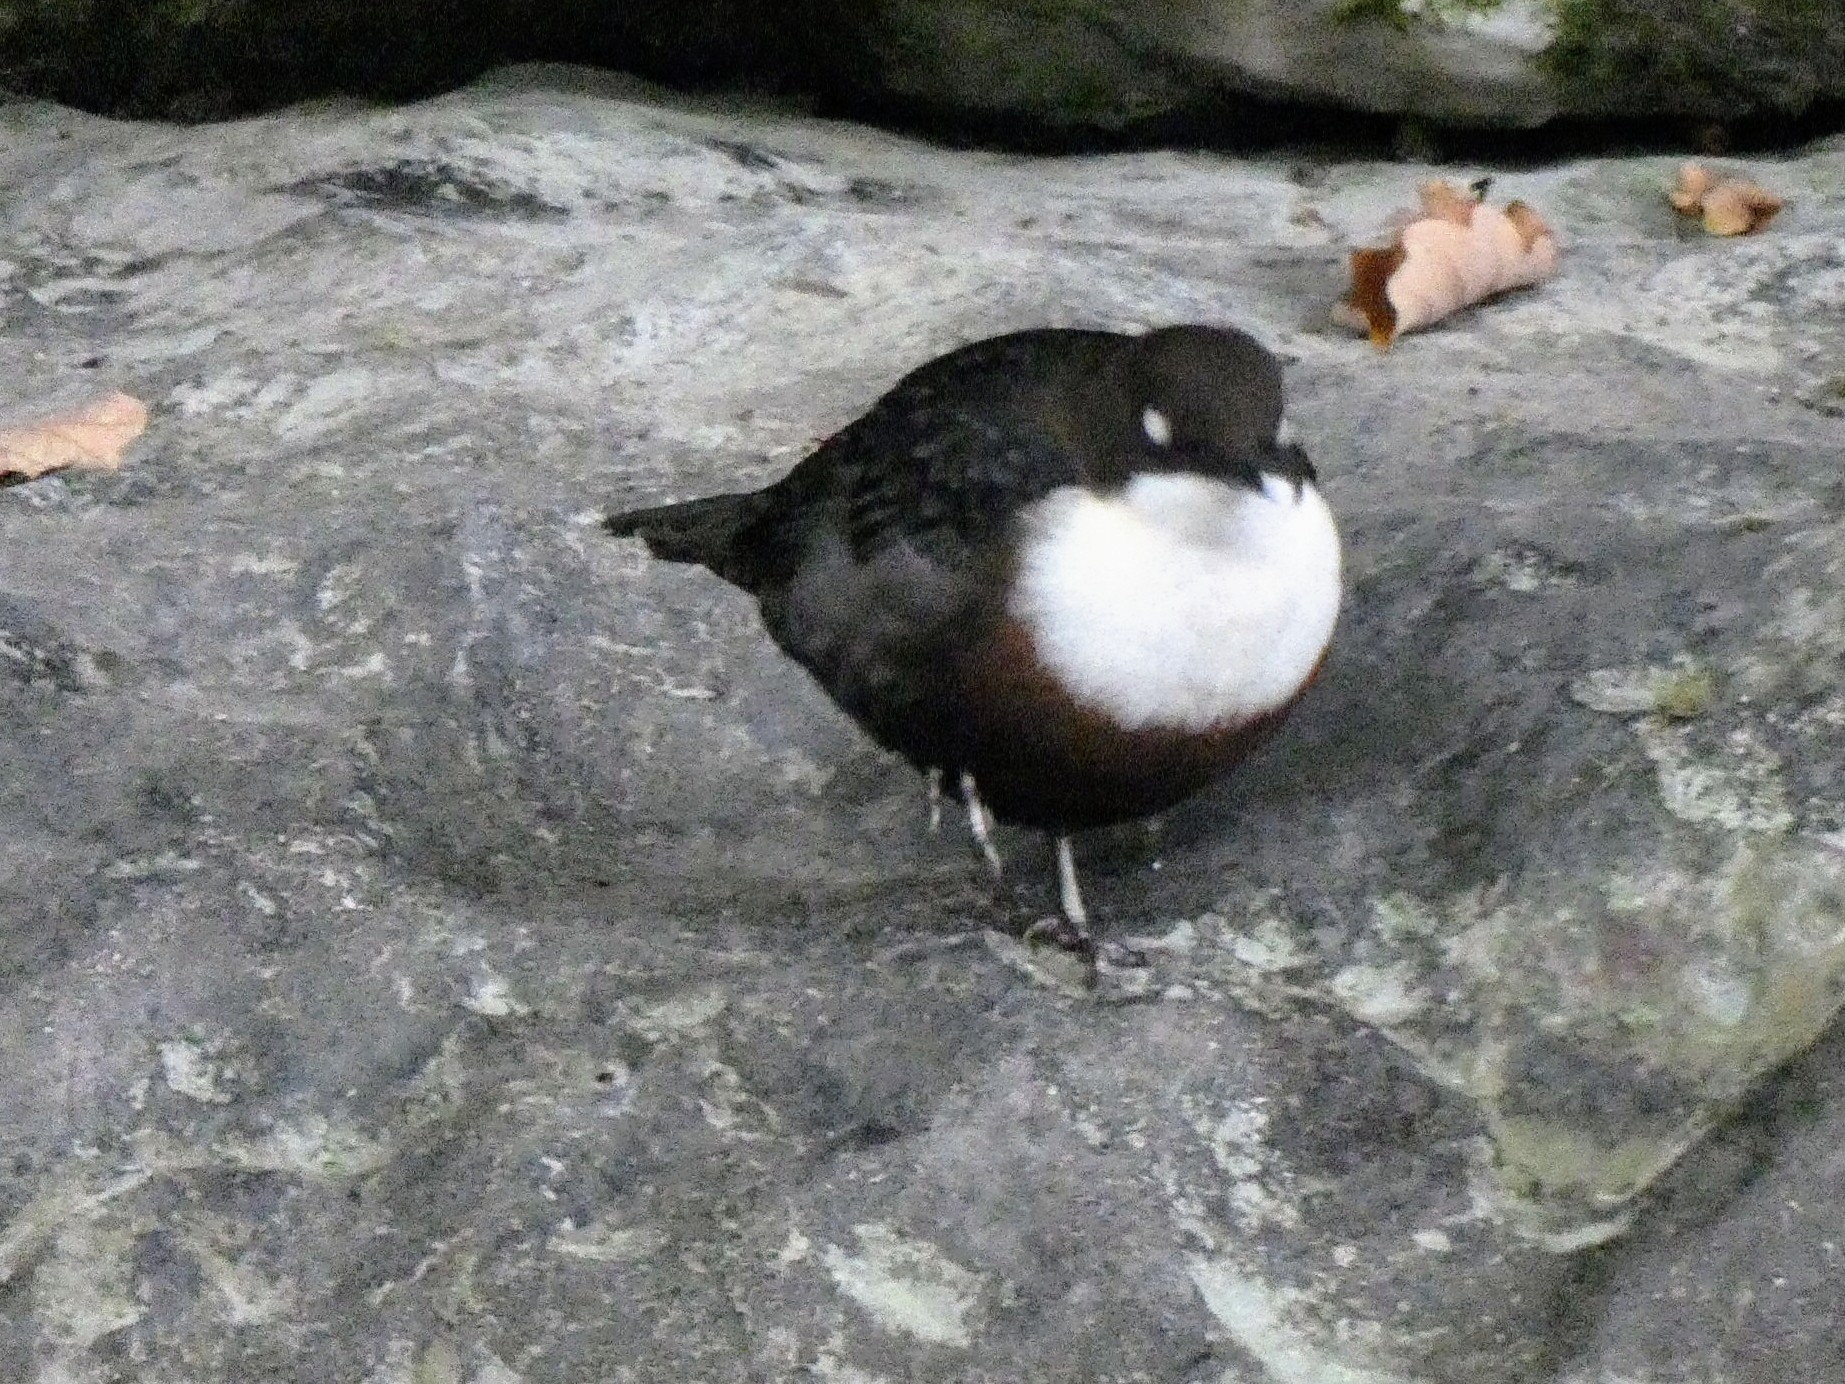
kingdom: Animalia
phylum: Chordata
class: Aves
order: Passeriformes
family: Cinclidae
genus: Cinclus
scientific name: Cinclus cinclus
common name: White-throated dipper
